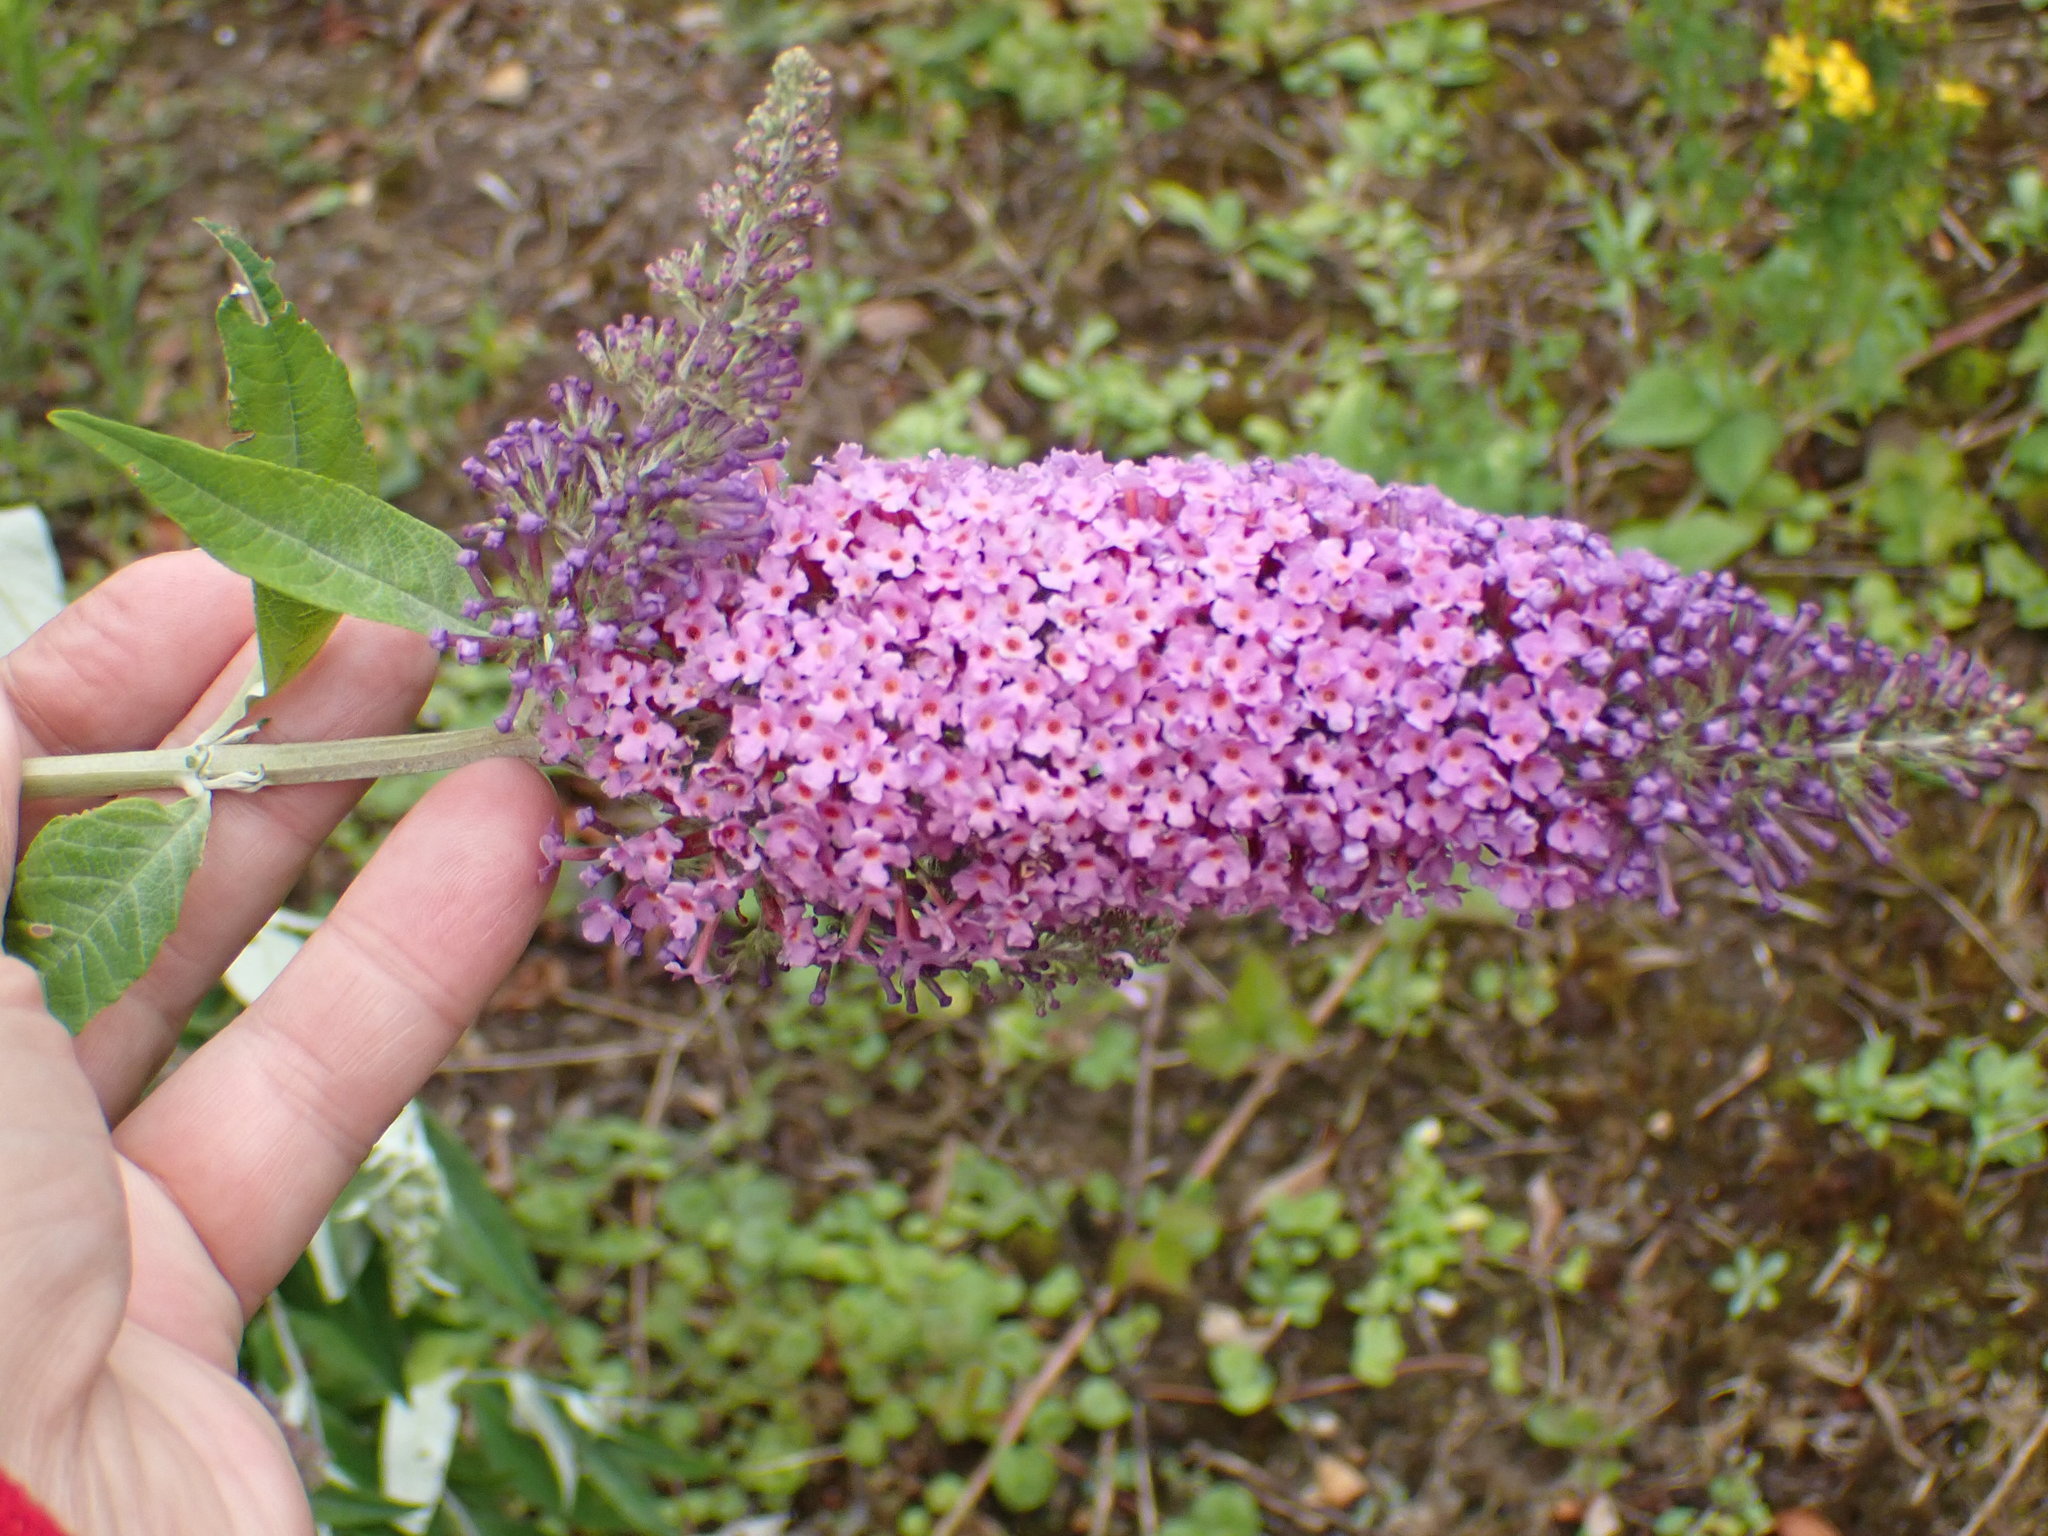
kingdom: Plantae
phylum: Tracheophyta
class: Magnoliopsida
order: Lamiales
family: Scrophulariaceae
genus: Buddleja
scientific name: Buddleja davidii
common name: Butterfly-bush
